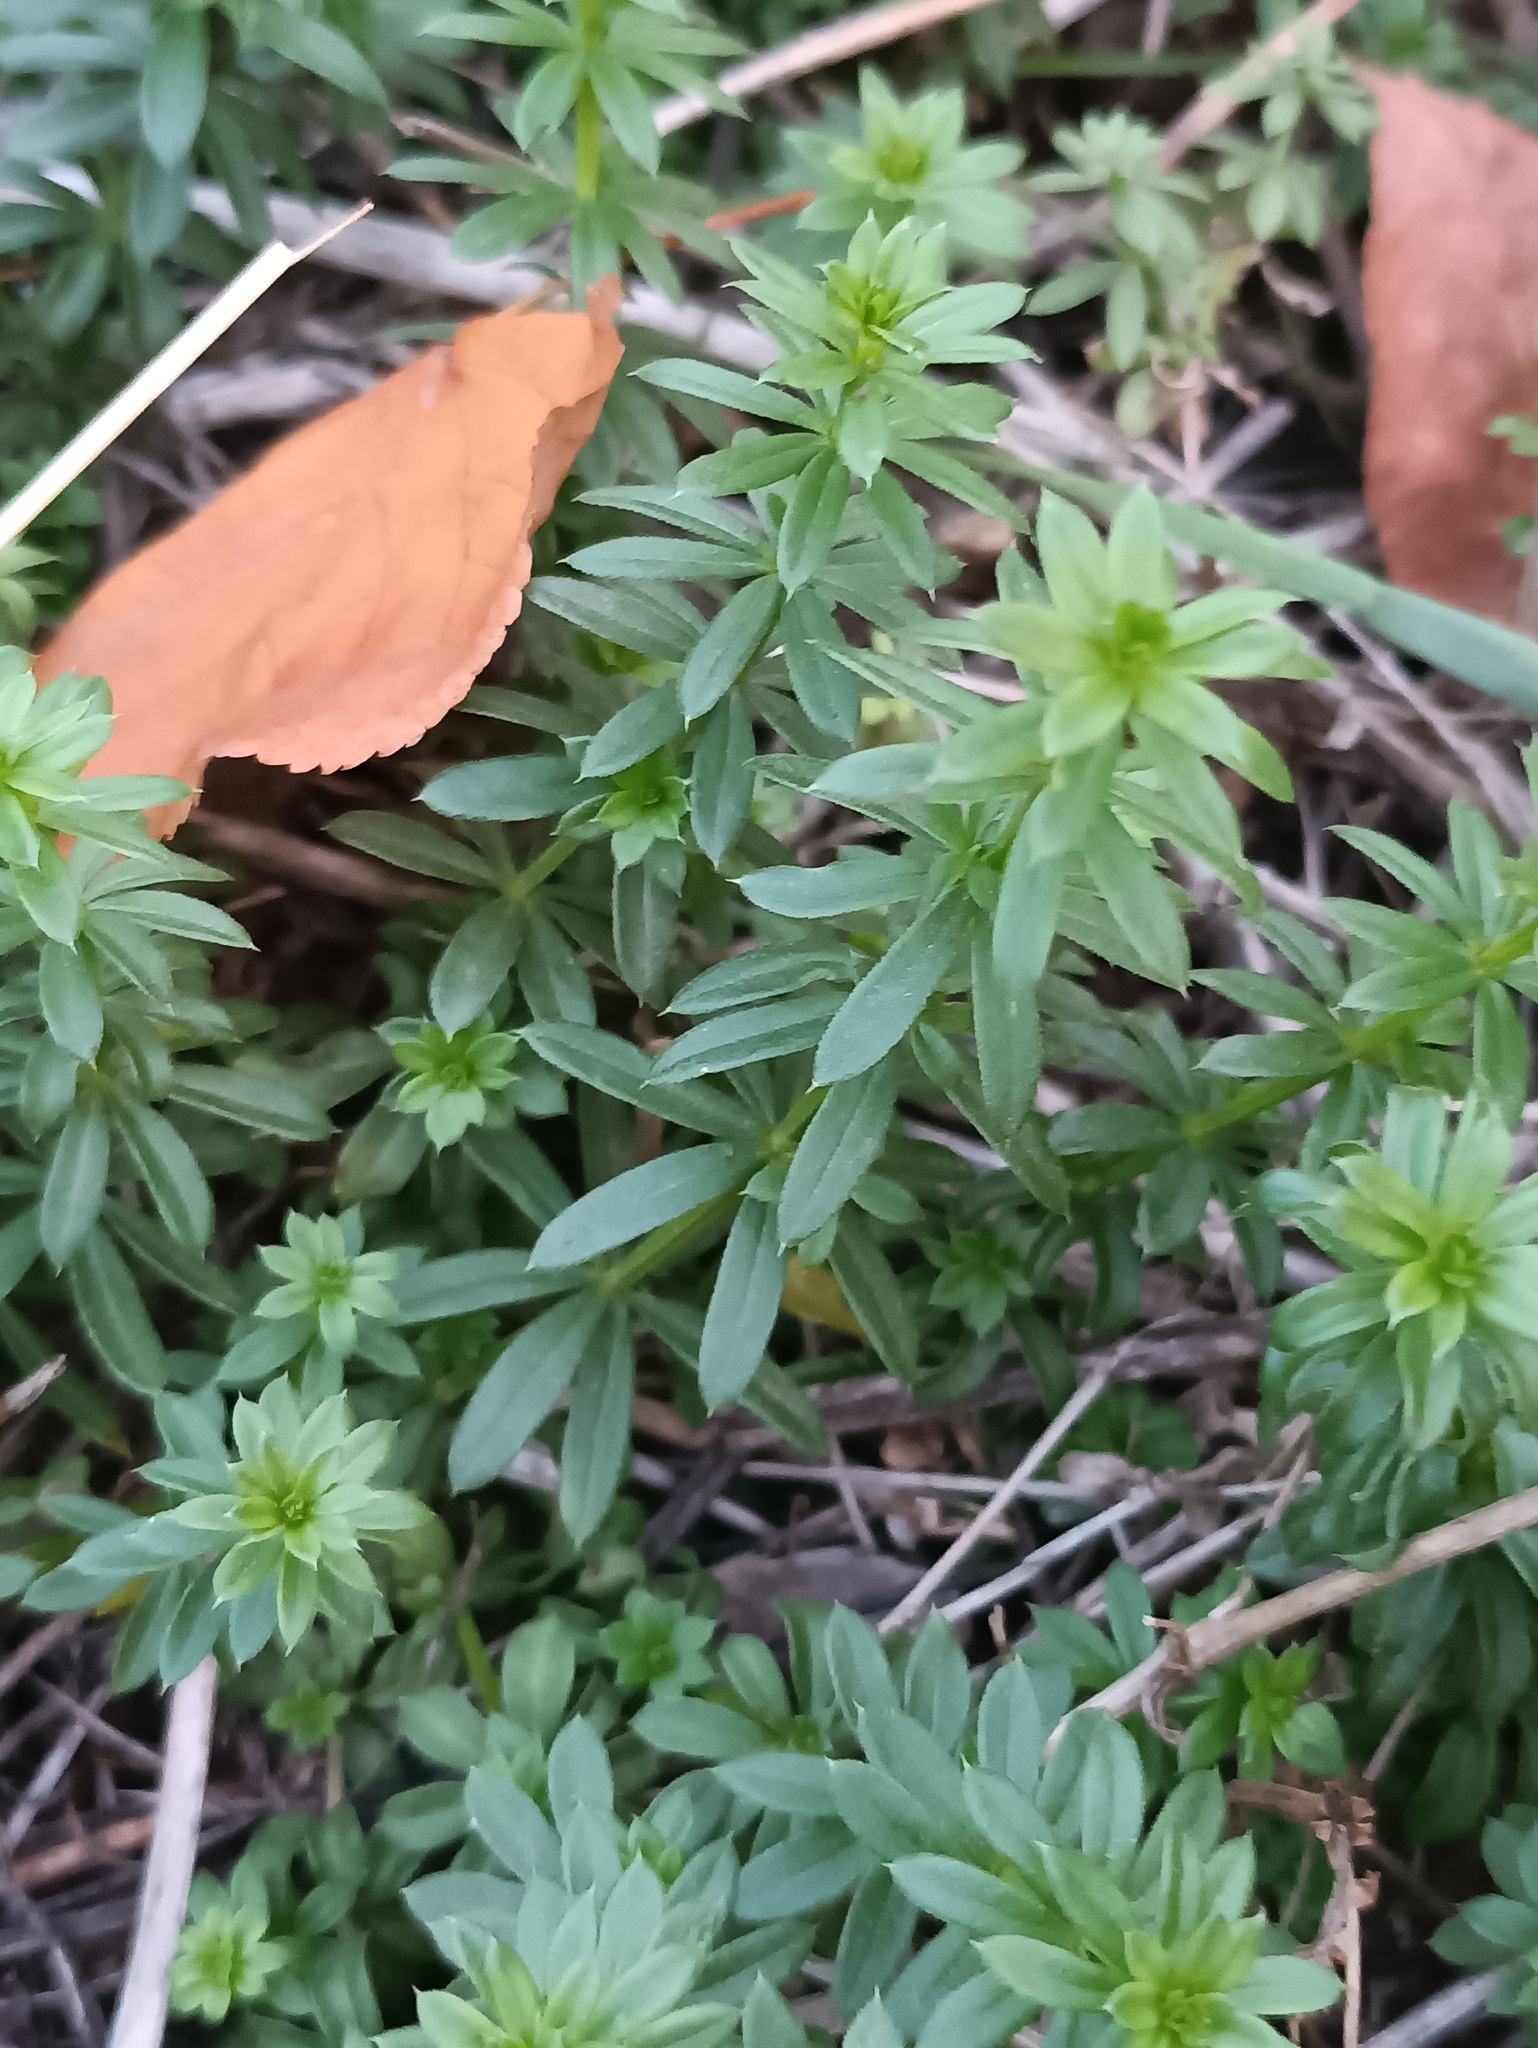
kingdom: Plantae
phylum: Tracheophyta
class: Magnoliopsida
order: Gentianales
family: Rubiaceae
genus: Galium
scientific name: Galium mollugo
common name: Hedge bedstraw
